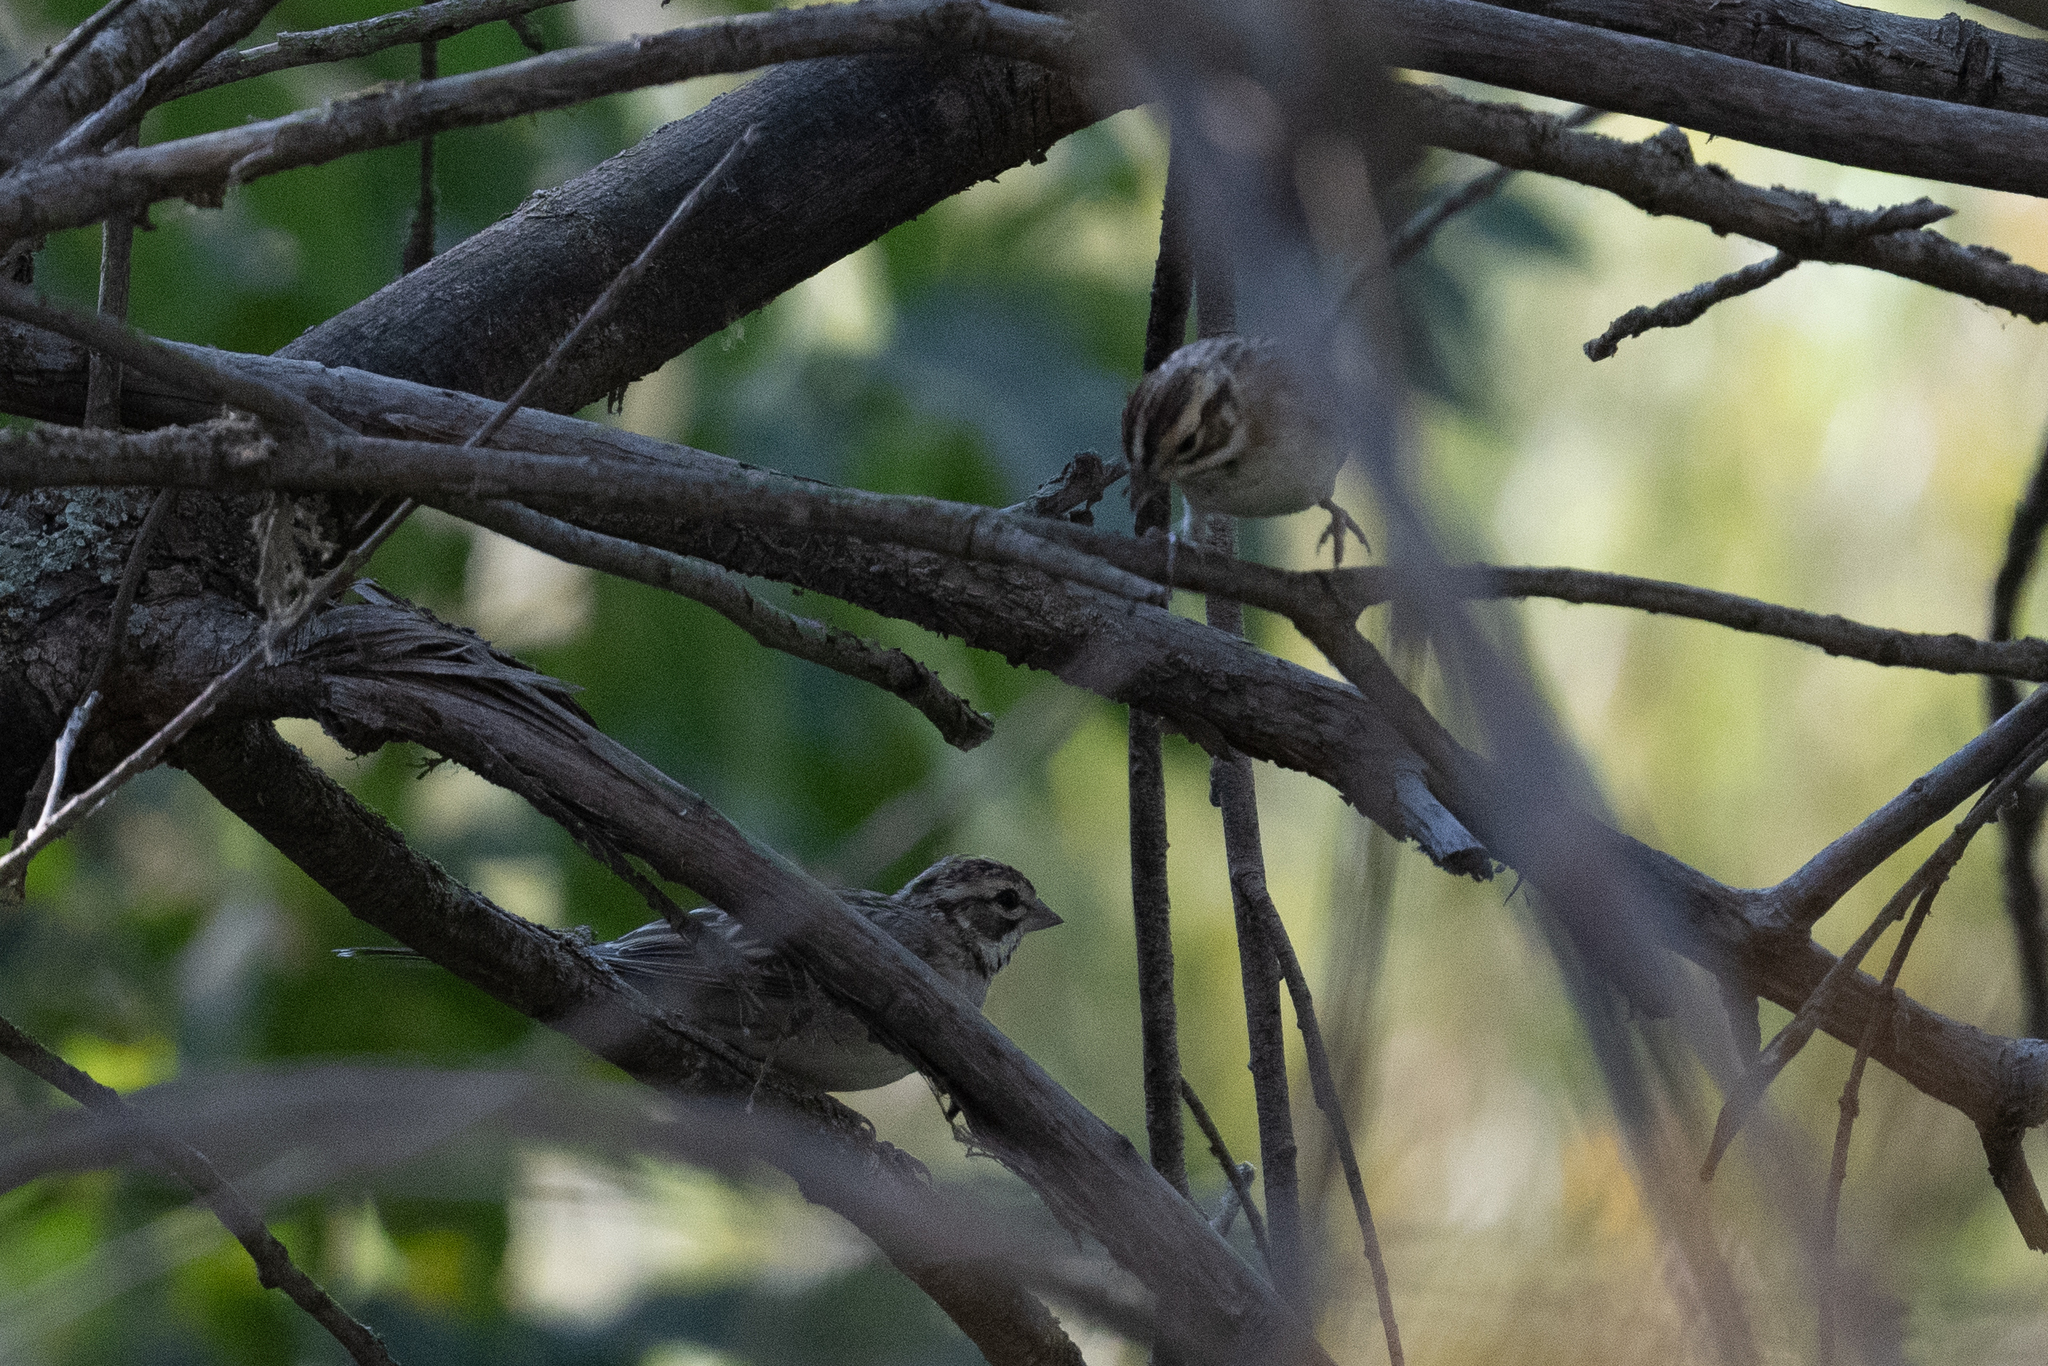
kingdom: Animalia
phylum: Chordata
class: Aves
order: Passeriformes
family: Passerellidae
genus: Chondestes
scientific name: Chondestes grammacus
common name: Lark sparrow
